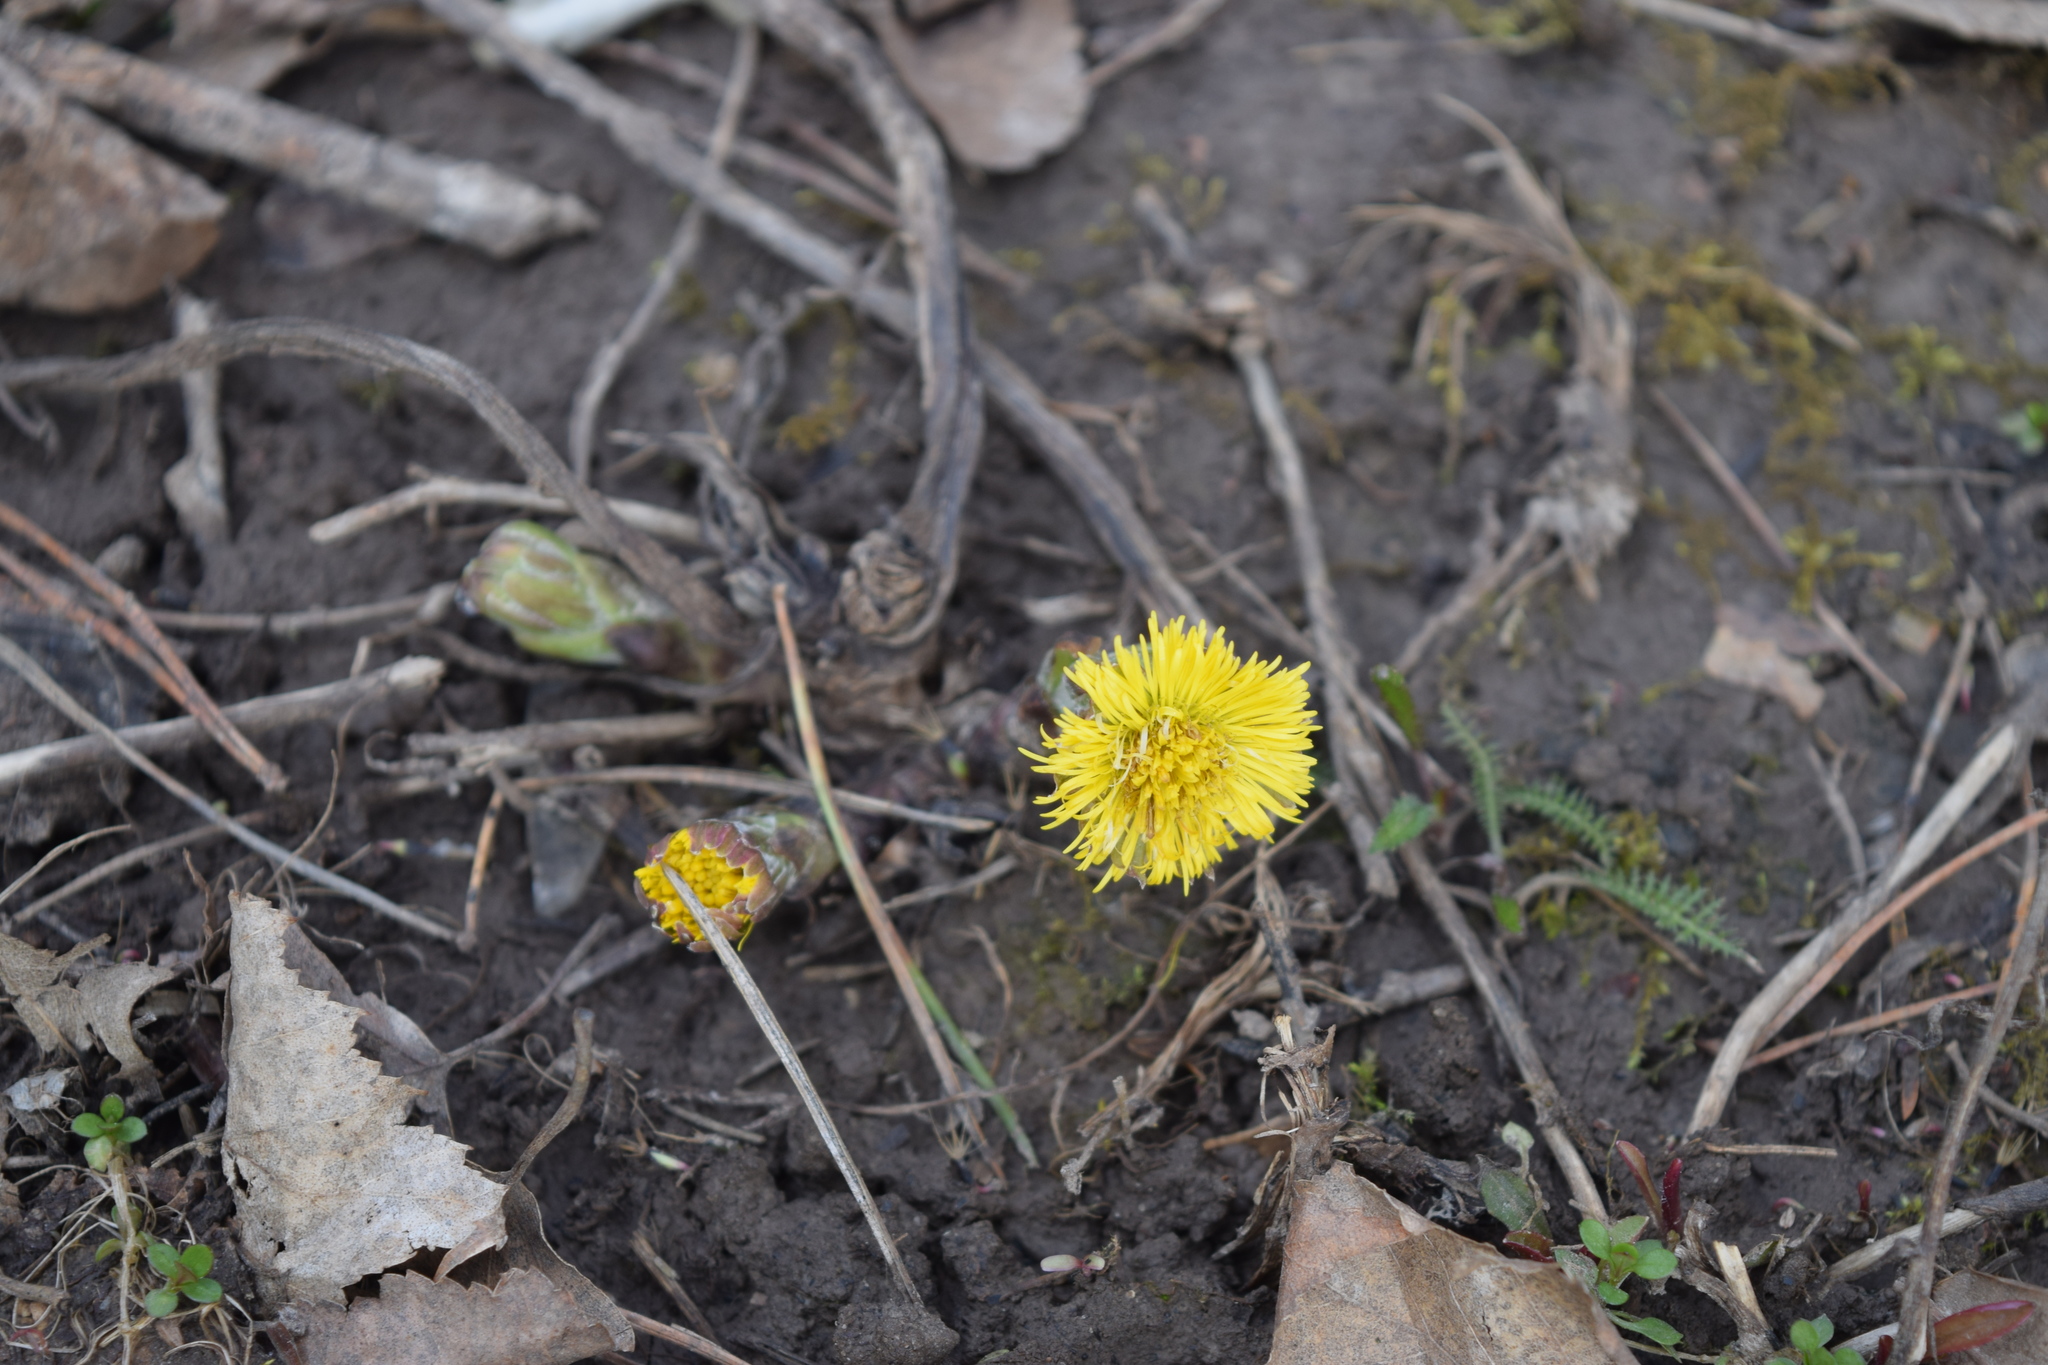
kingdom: Plantae
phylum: Tracheophyta
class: Magnoliopsida
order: Asterales
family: Asteraceae
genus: Tussilago
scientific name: Tussilago farfara
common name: Coltsfoot
